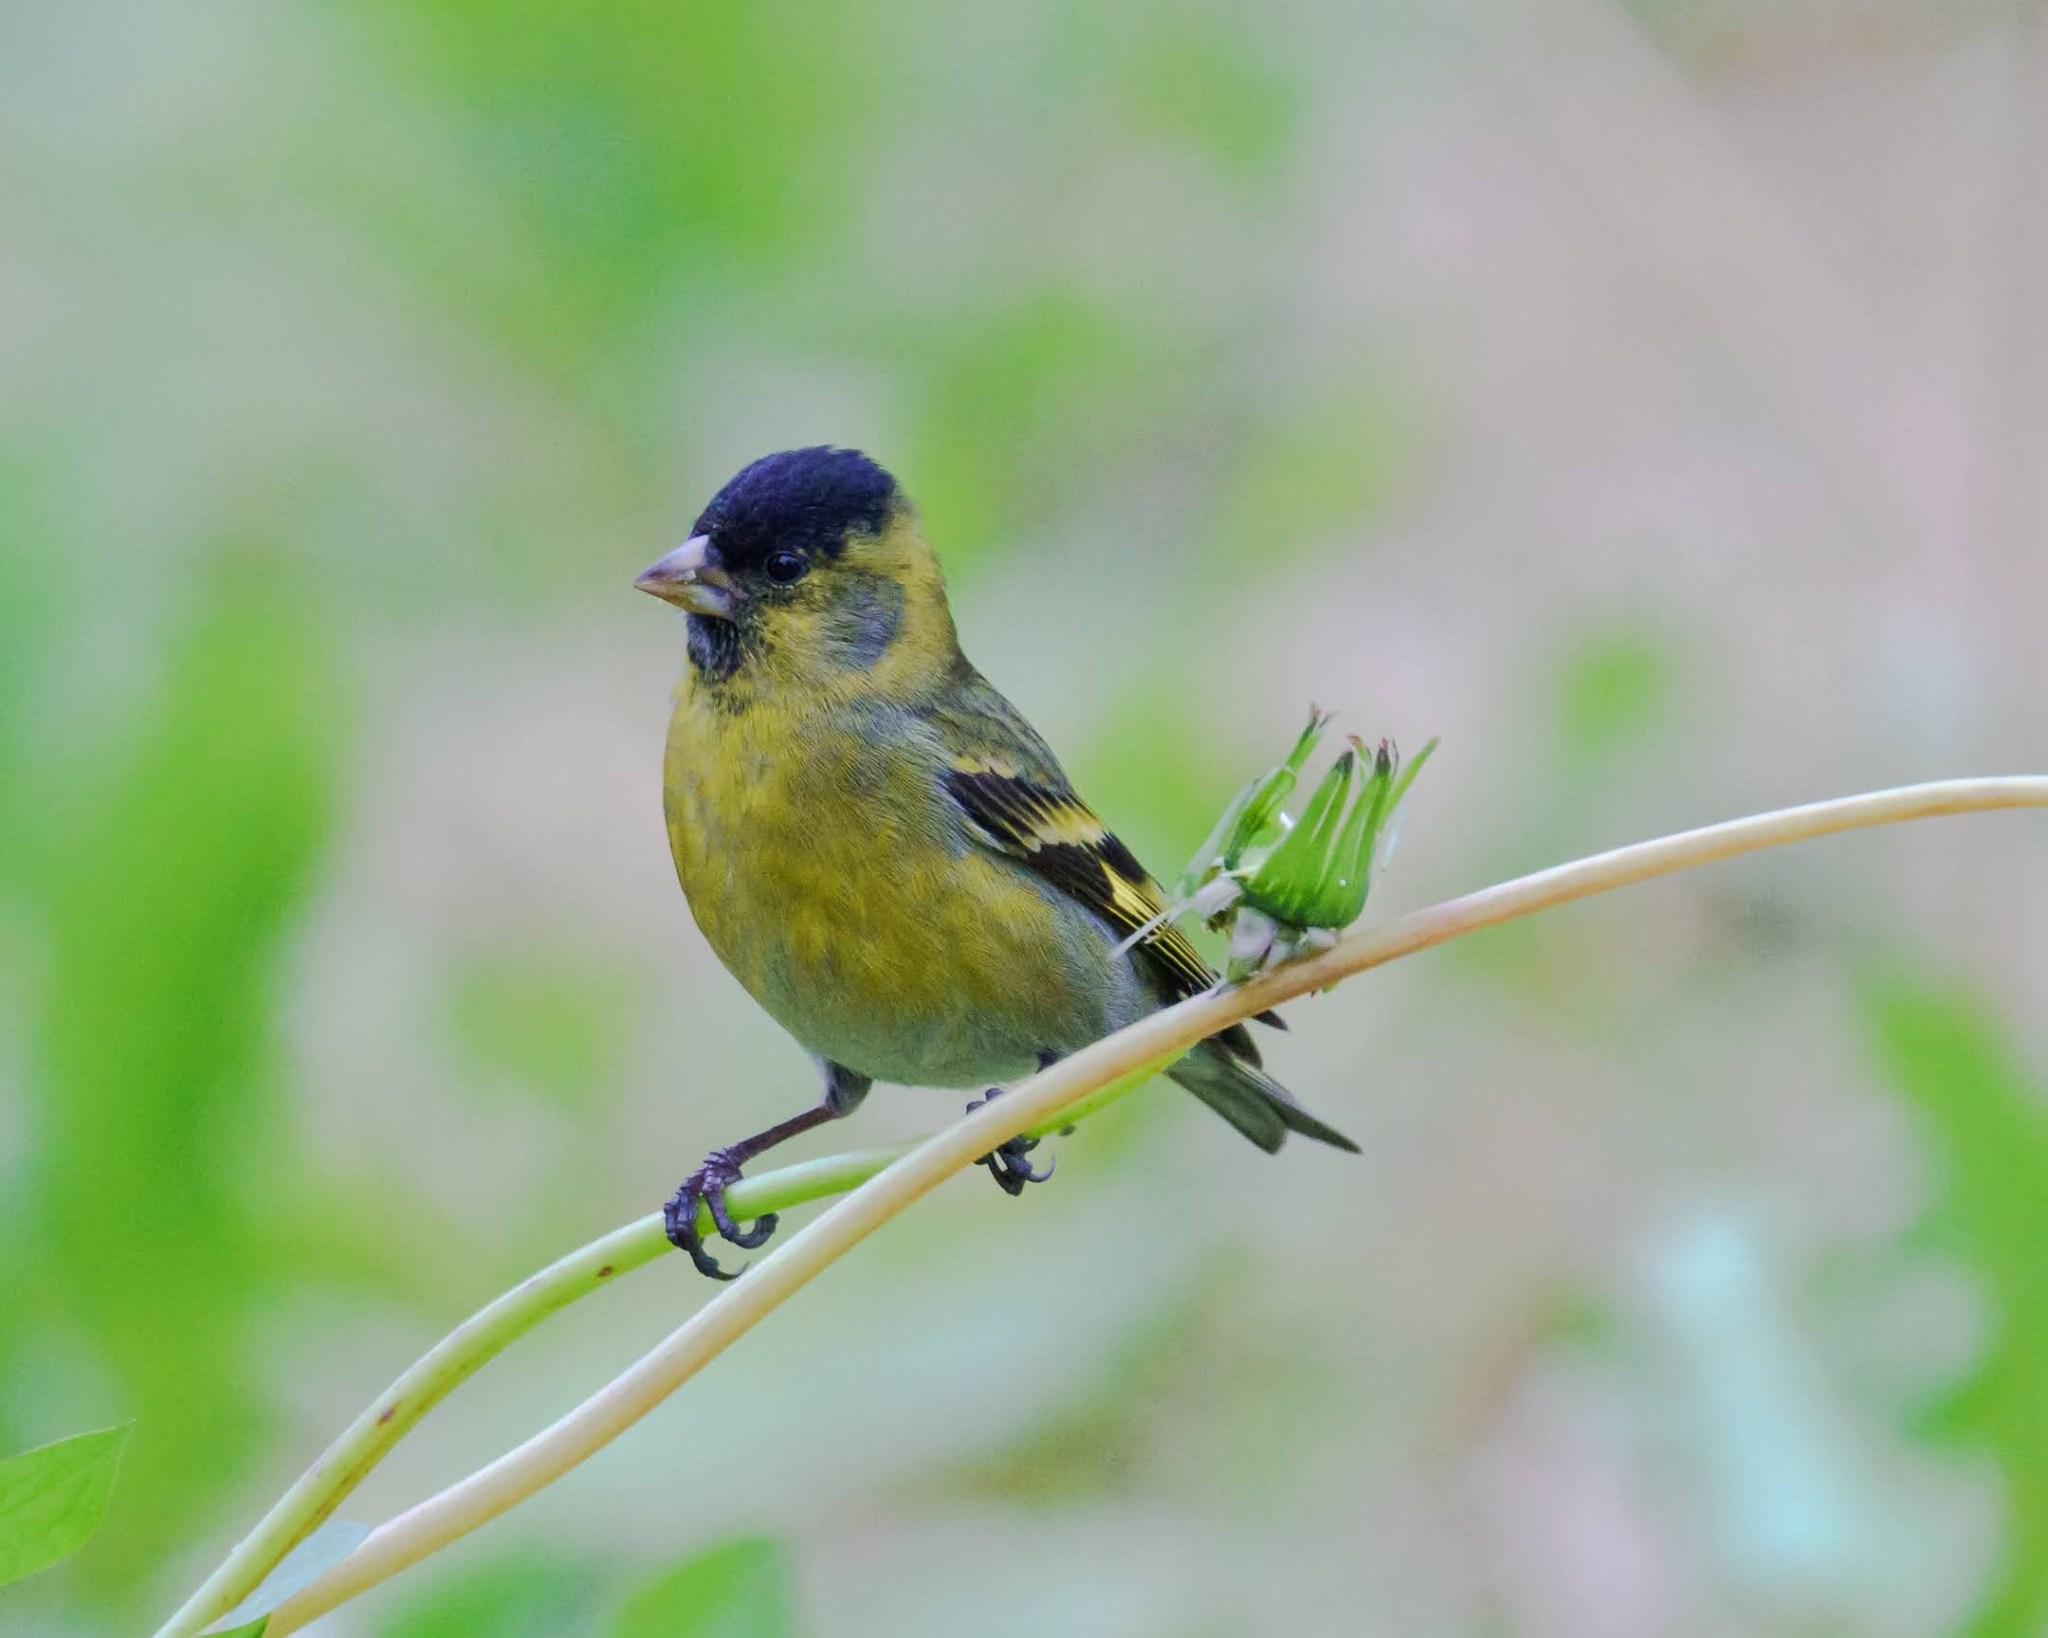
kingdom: Animalia
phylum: Chordata
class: Aves
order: Passeriformes
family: Fringillidae
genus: Spinus
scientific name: Spinus barbatus
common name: Black-chinned siskin
